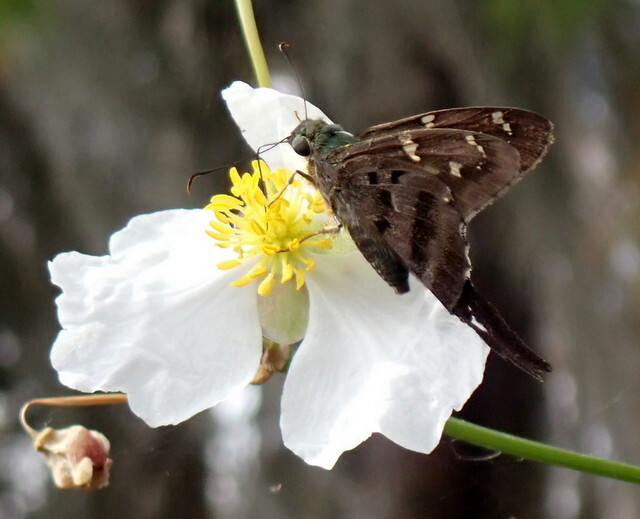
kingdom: Animalia
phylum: Arthropoda
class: Insecta
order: Lepidoptera
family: Hesperiidae
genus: Urbanus
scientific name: Urbanus proteus
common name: Long-tailed skipper
